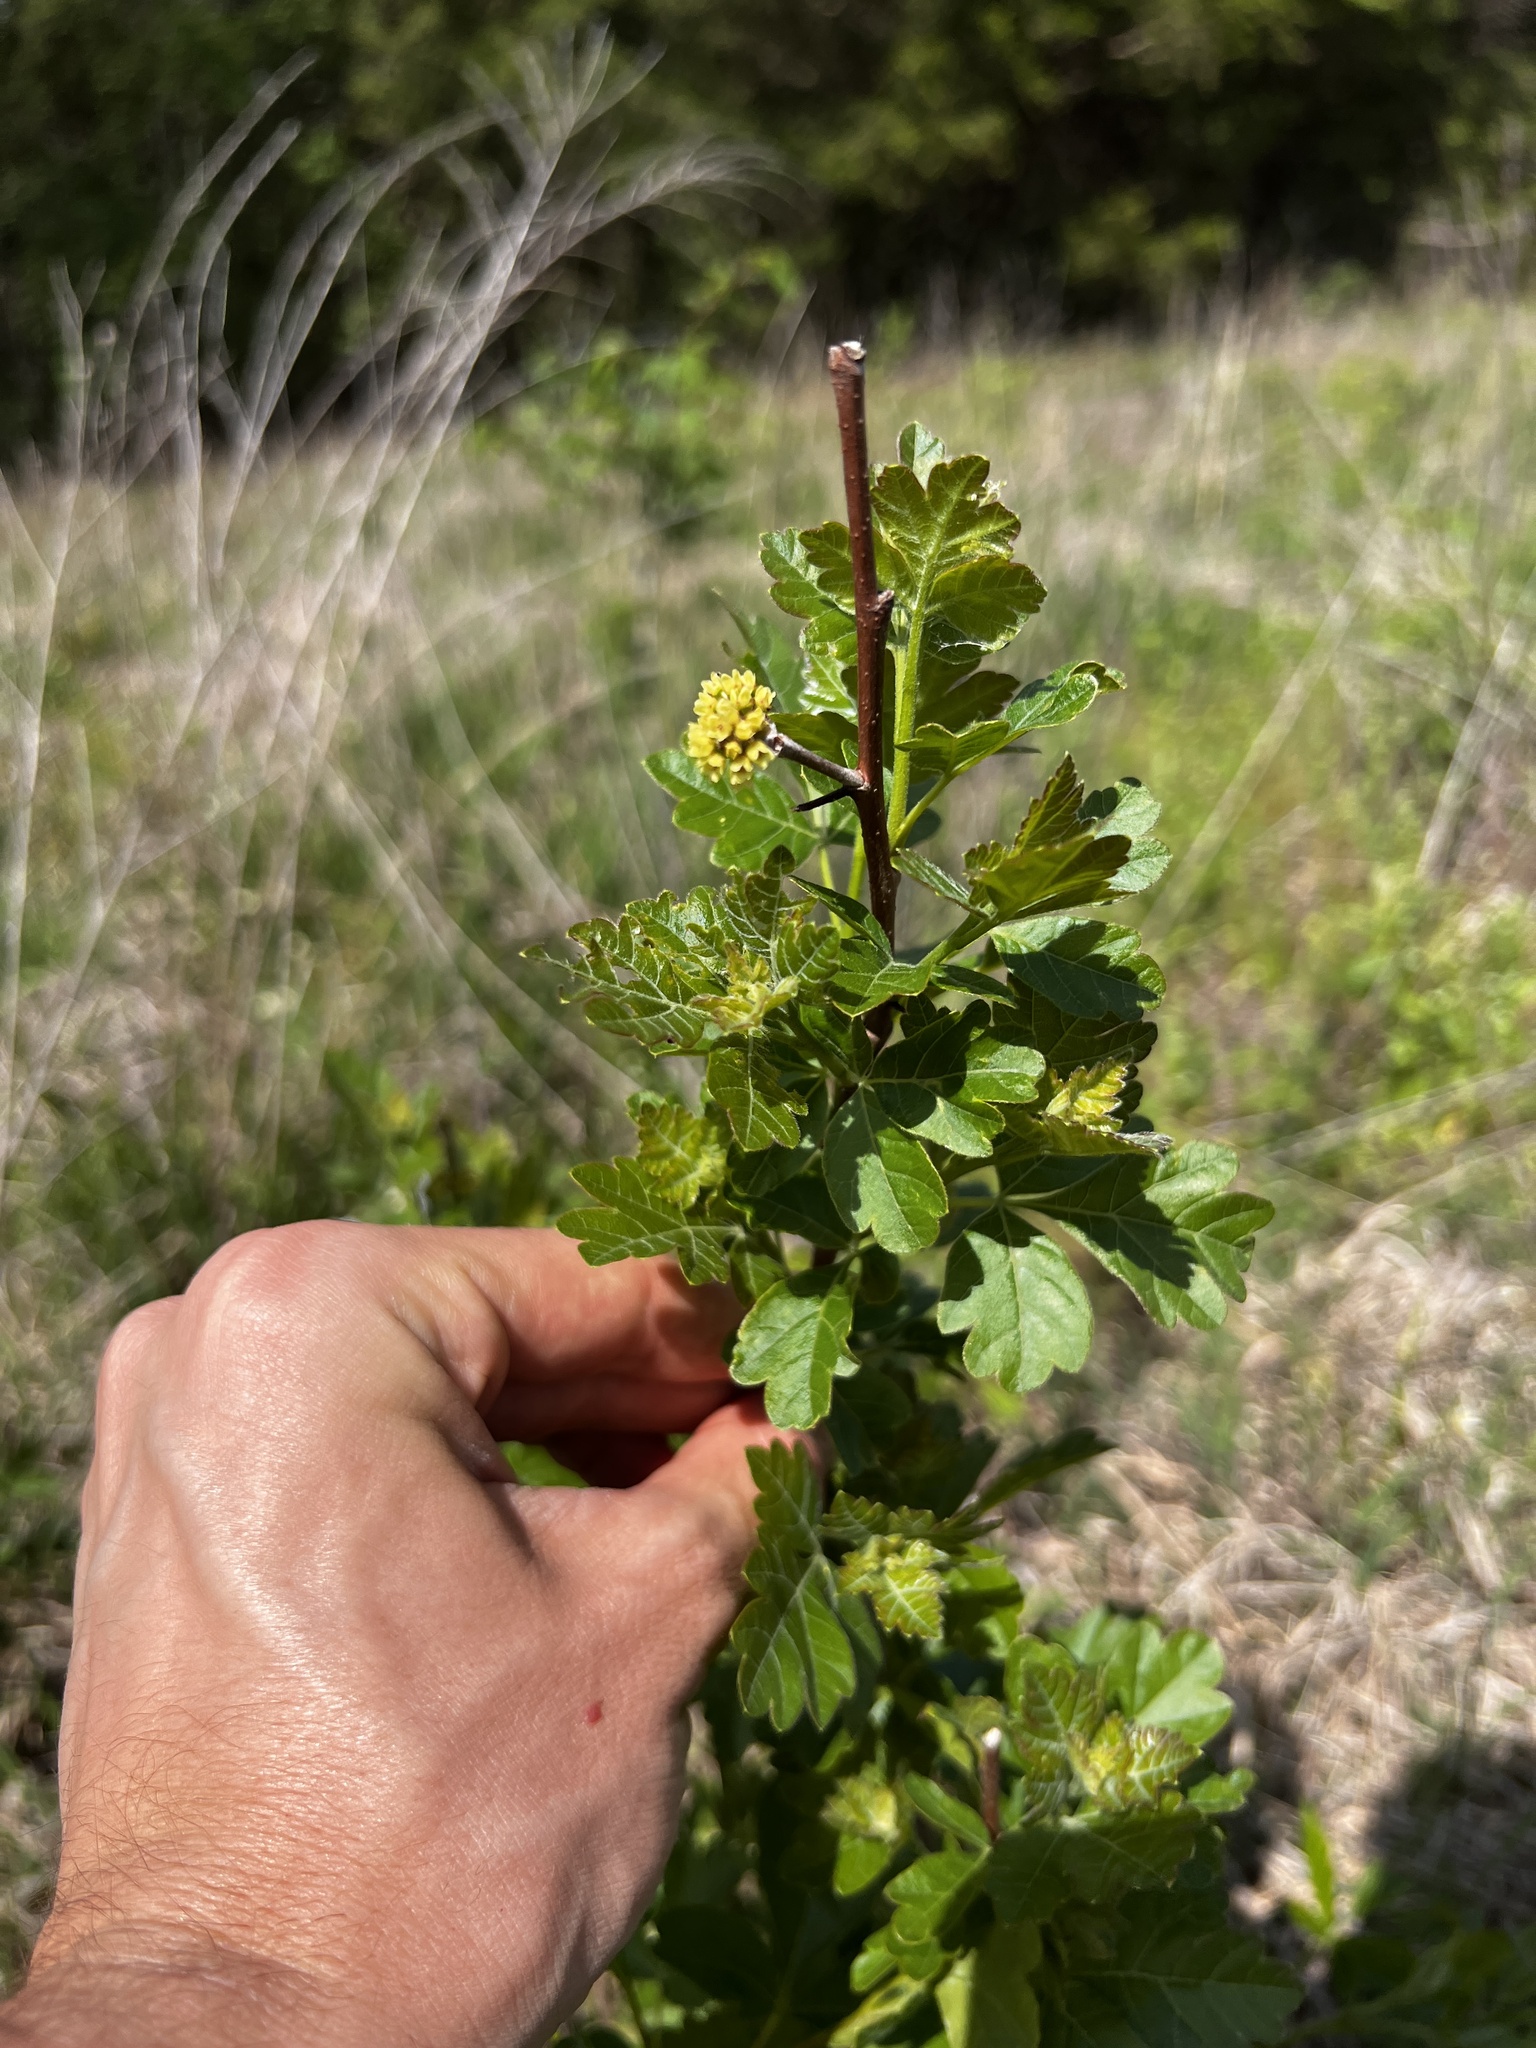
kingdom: Plantae
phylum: Tracheophyta
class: Magnoliopsida
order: Sapindales
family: Anacardiaceae
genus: Rhus
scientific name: Rhus aromatica
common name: Aromatic sumac
